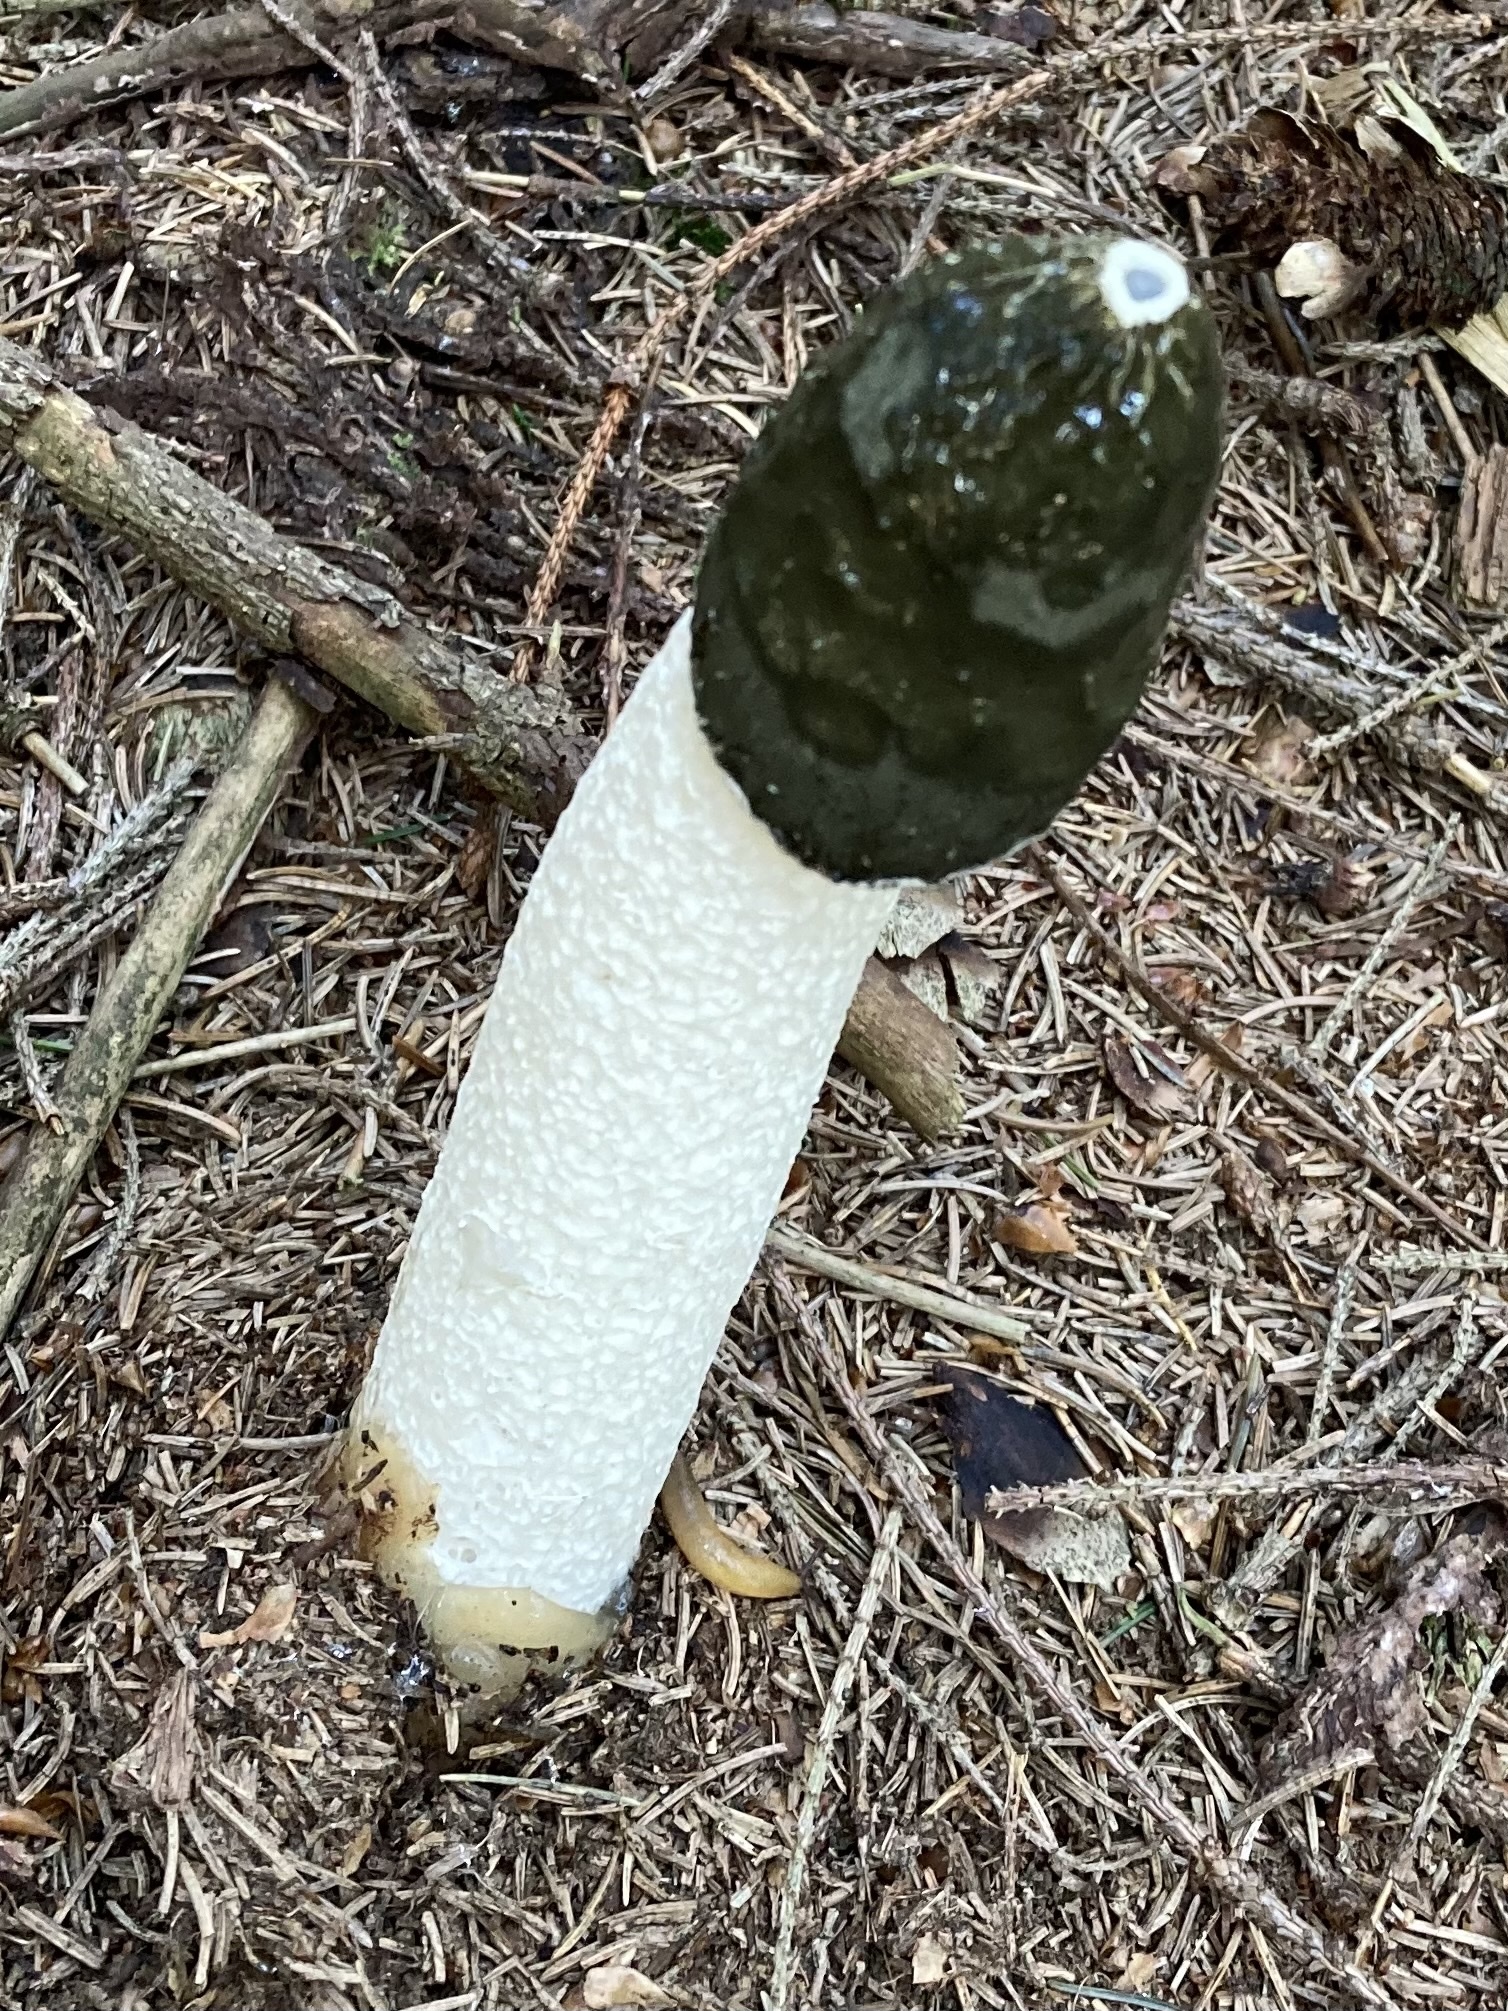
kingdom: Fungi
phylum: Basidiomycota
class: Agaricomycetes
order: Phallales
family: Phallaceae
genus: Phallus
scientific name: Phallus impudicus
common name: Common stinkhorn
